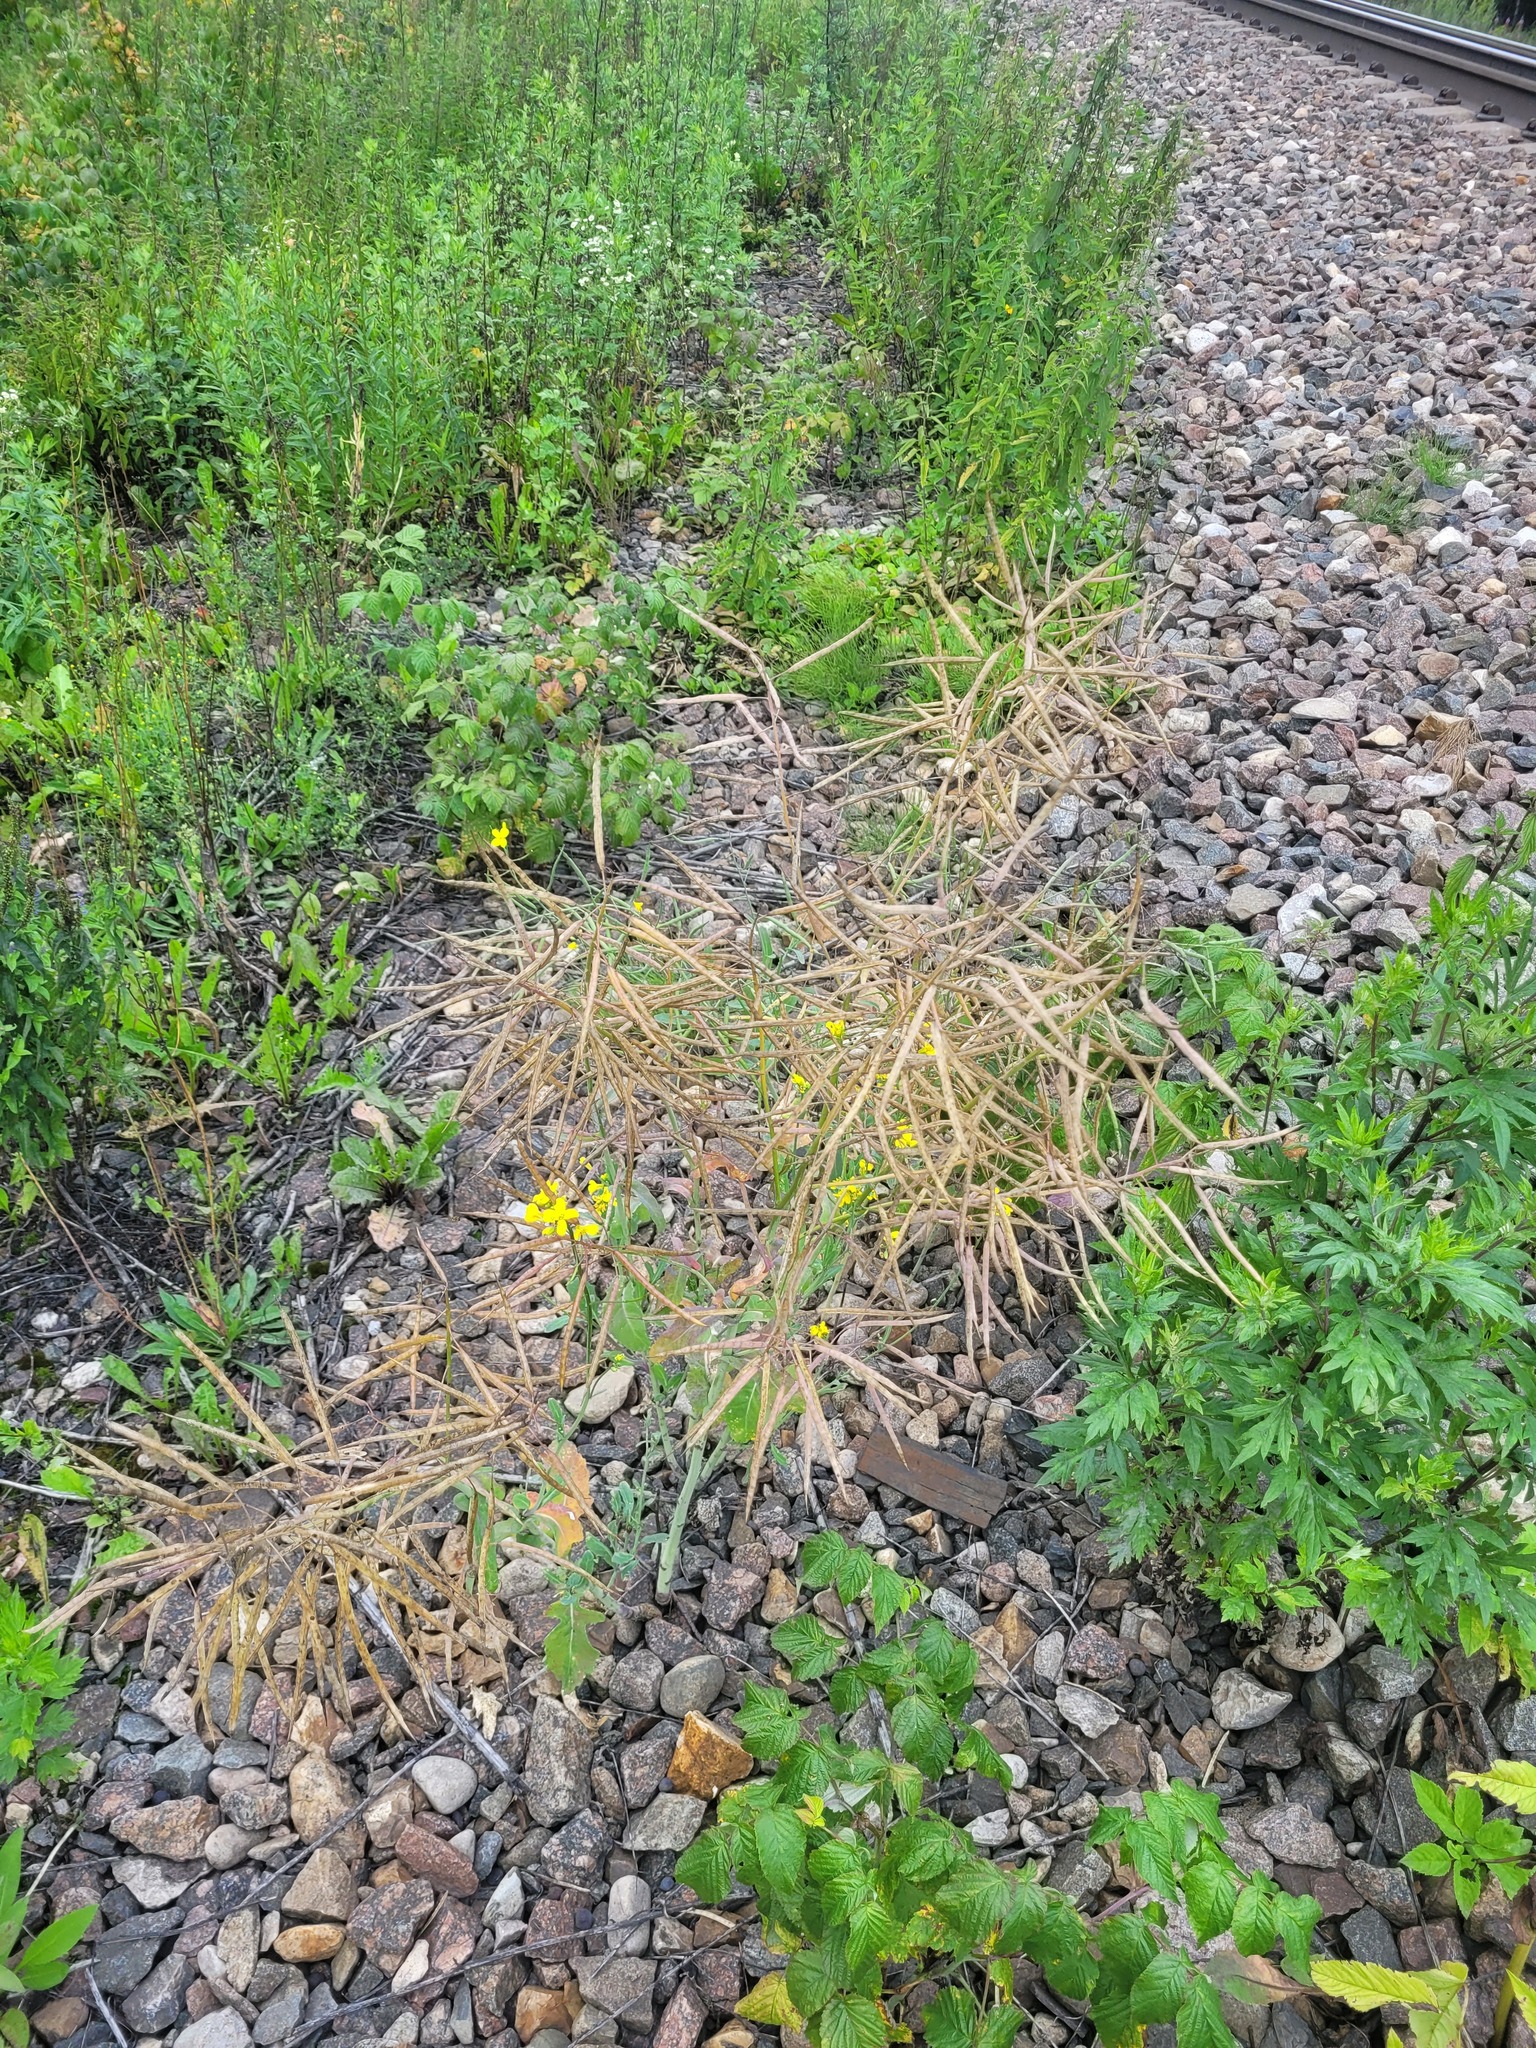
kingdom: Plantae
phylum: Tracheophyta
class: Magnoliopsida
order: Brassicales
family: Brassicaceae
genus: Brassica
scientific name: Brassica napus
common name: Rape
